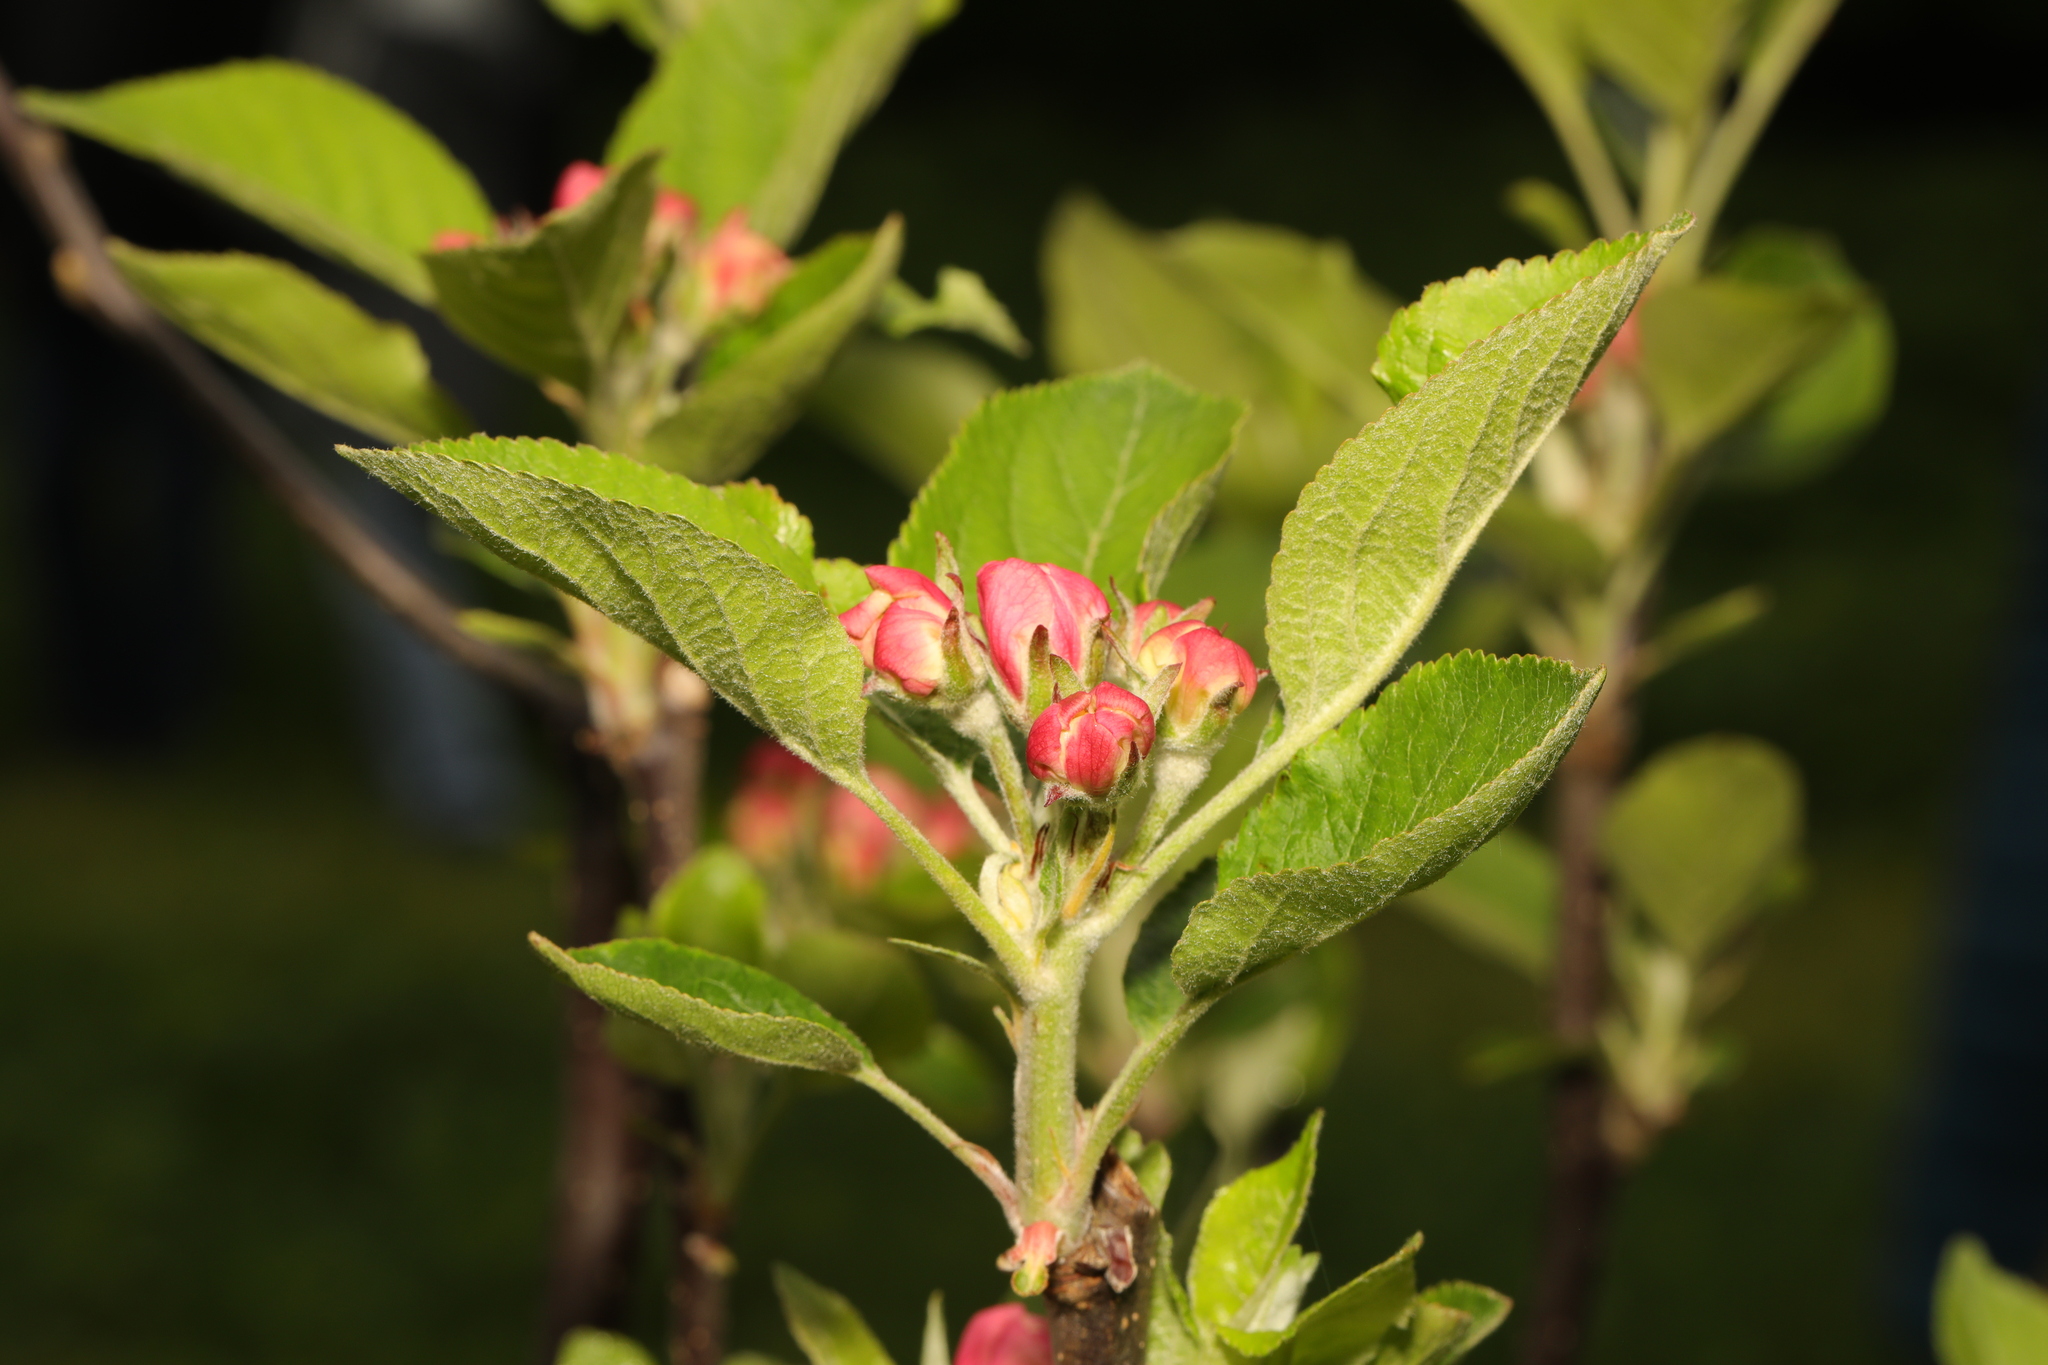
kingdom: Plantae
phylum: Tracheophyta
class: Magnoliopsida
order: Rosales
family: Rosaceae
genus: Malus
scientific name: Malus domestica
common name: Apple
